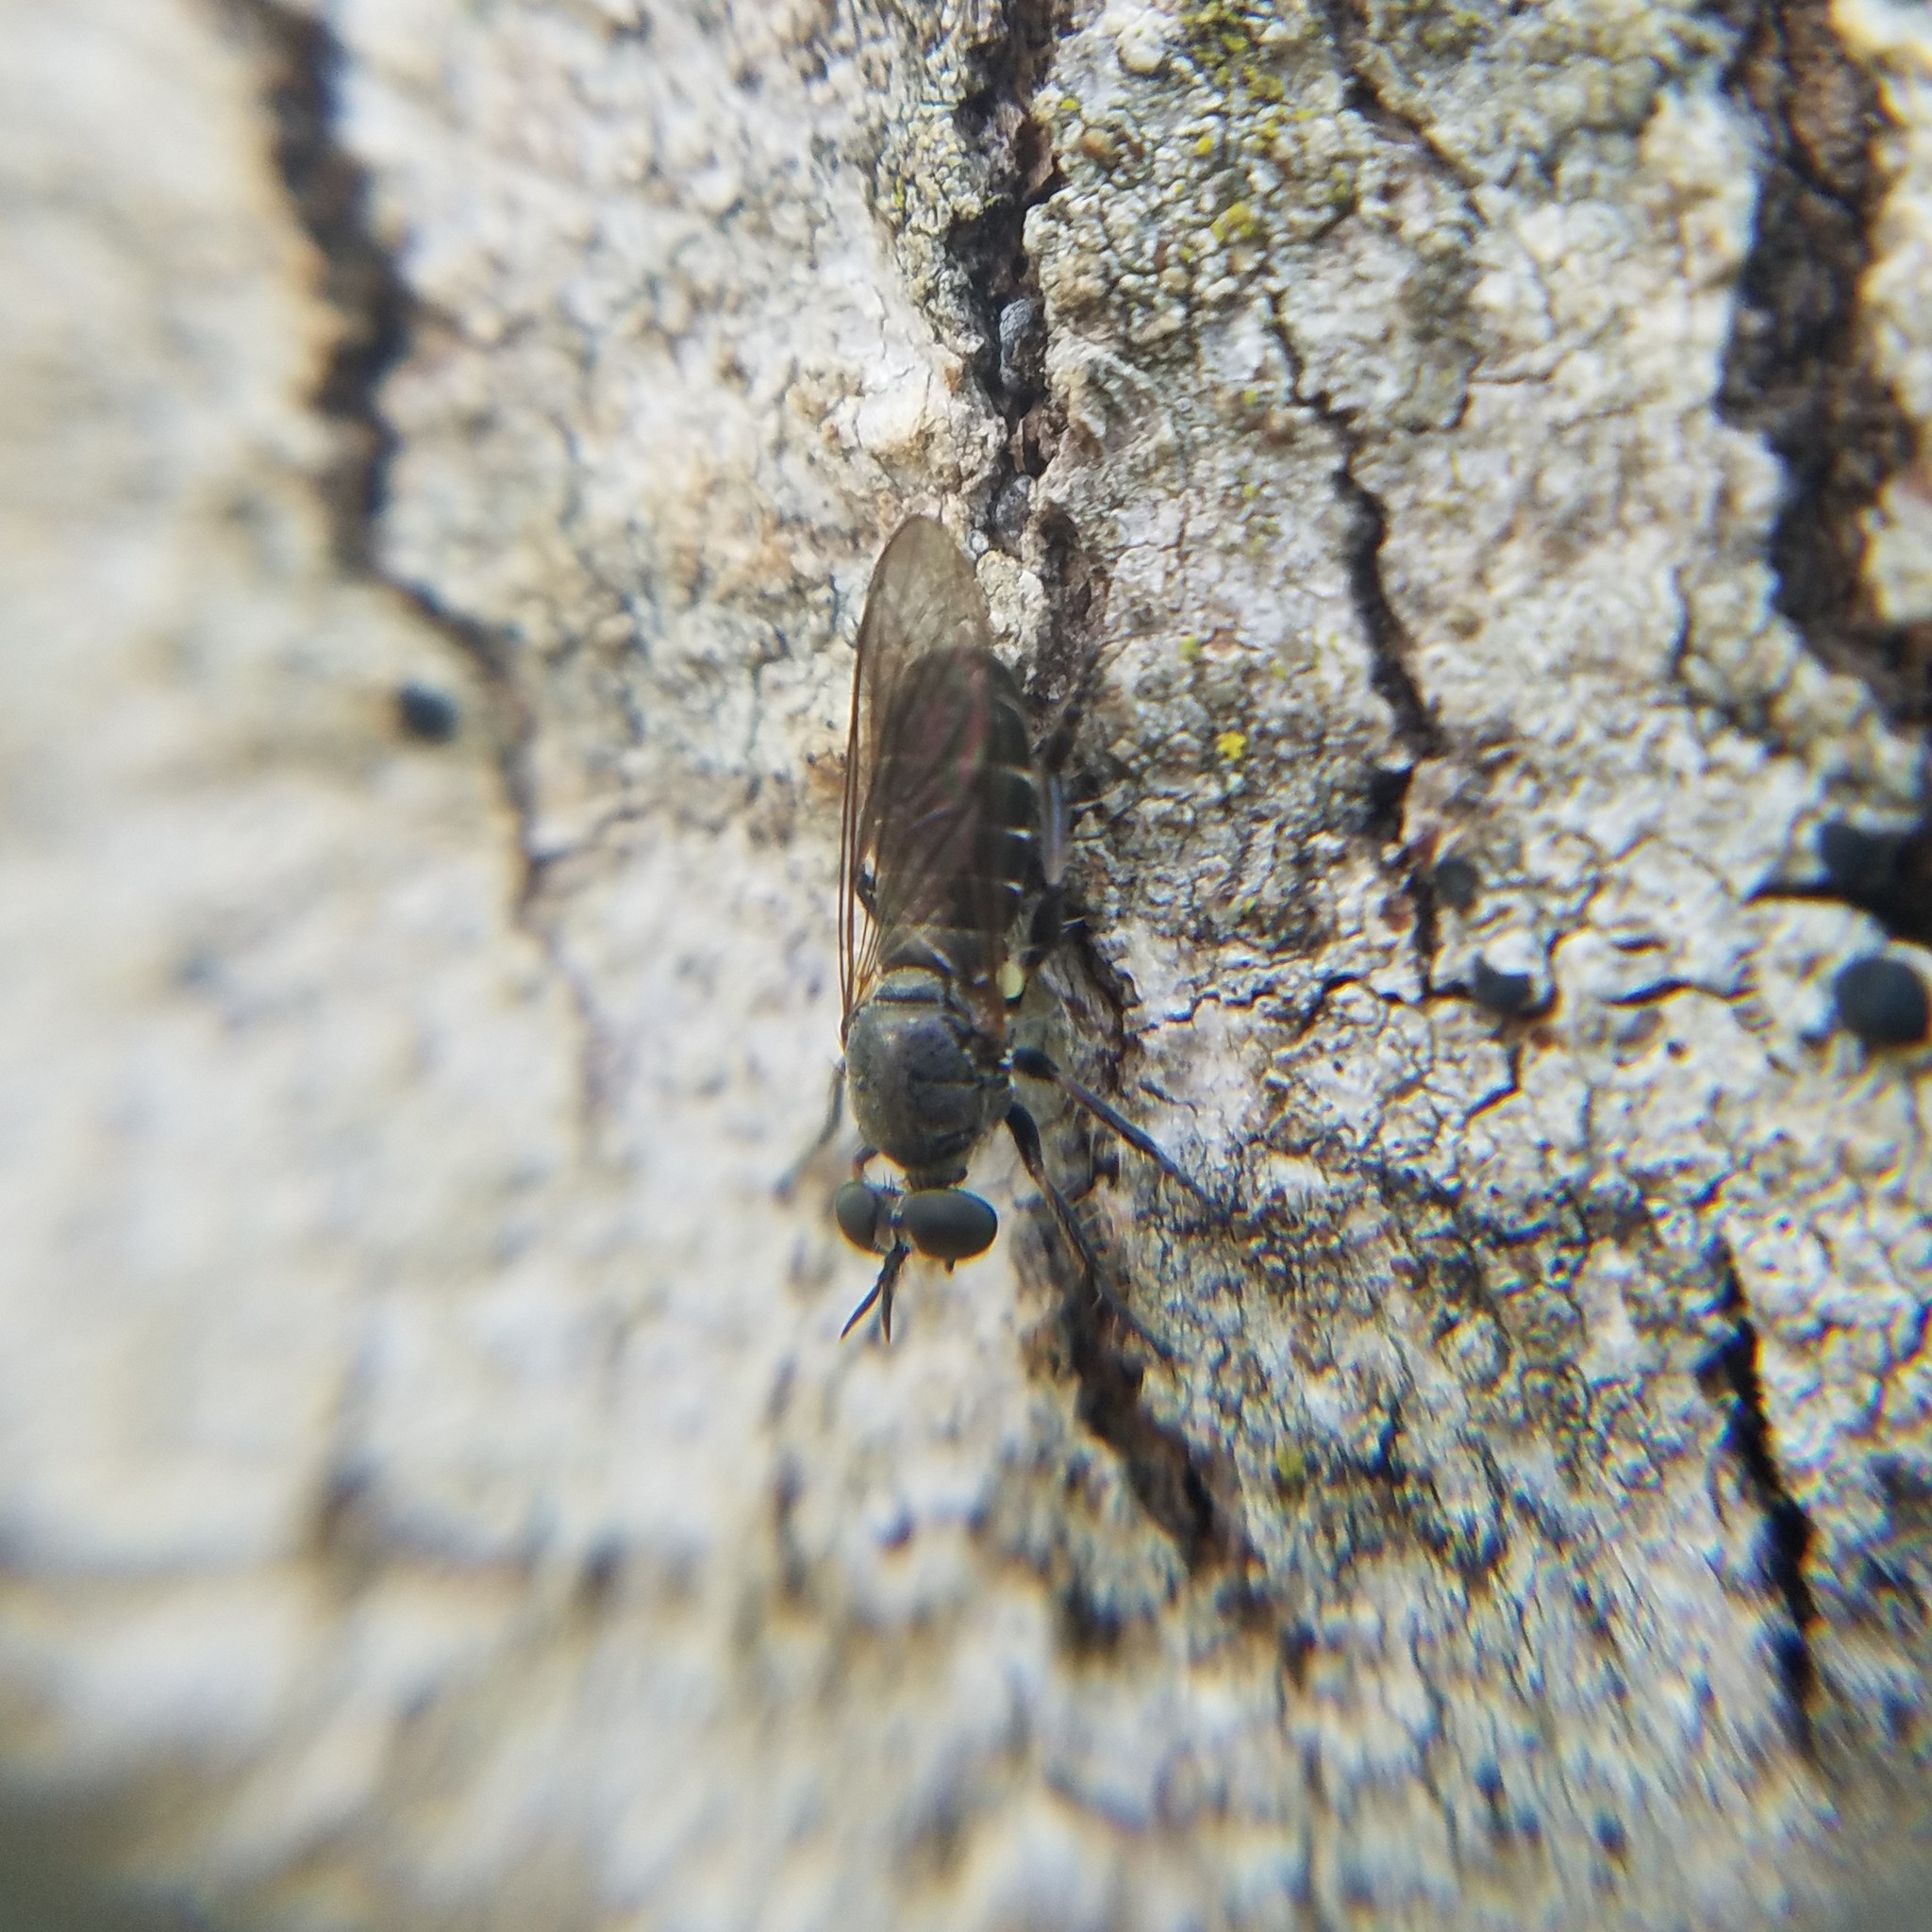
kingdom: Animalia
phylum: Arthropoda
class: Insecta
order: Diptera
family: Asilidae
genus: Atomosia
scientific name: Atomosia puella
